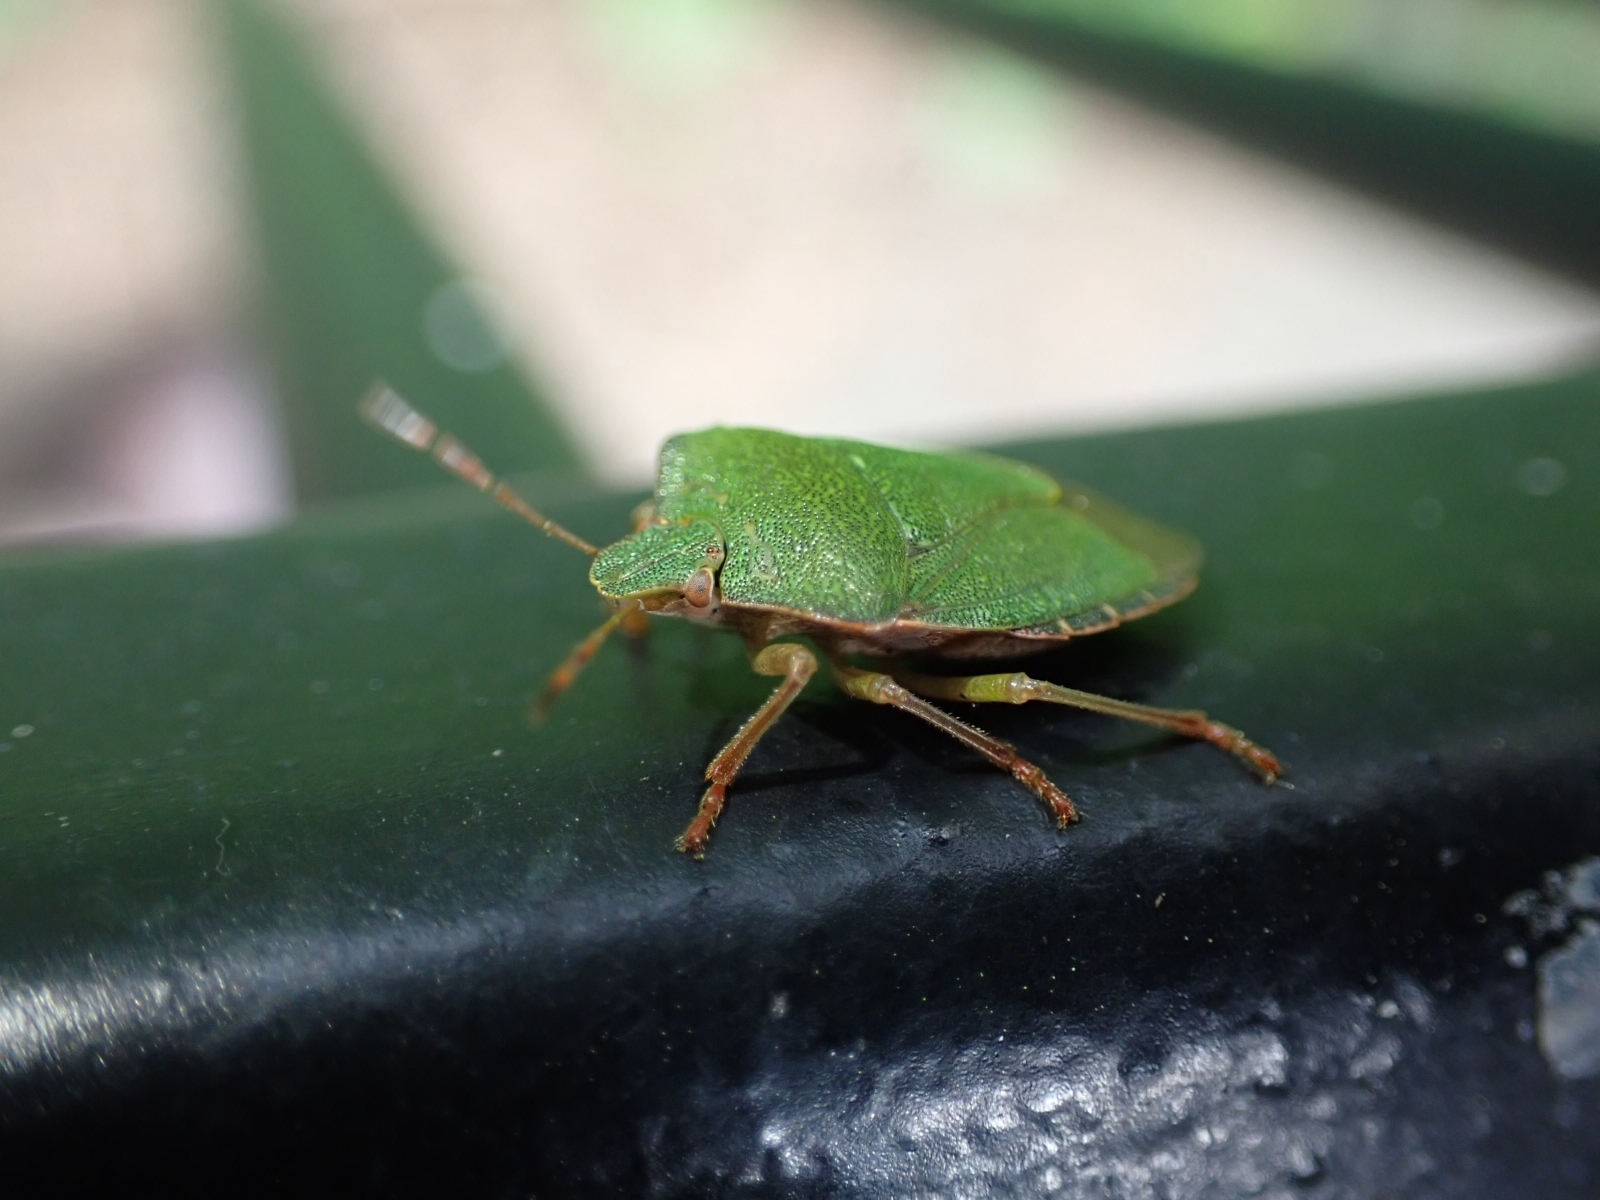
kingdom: Animalia
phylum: Arthropoda
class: Insecta
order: Hemiptera
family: Pentatomidae
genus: Palomena
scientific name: Palomena prasina
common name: Green shieldbug
